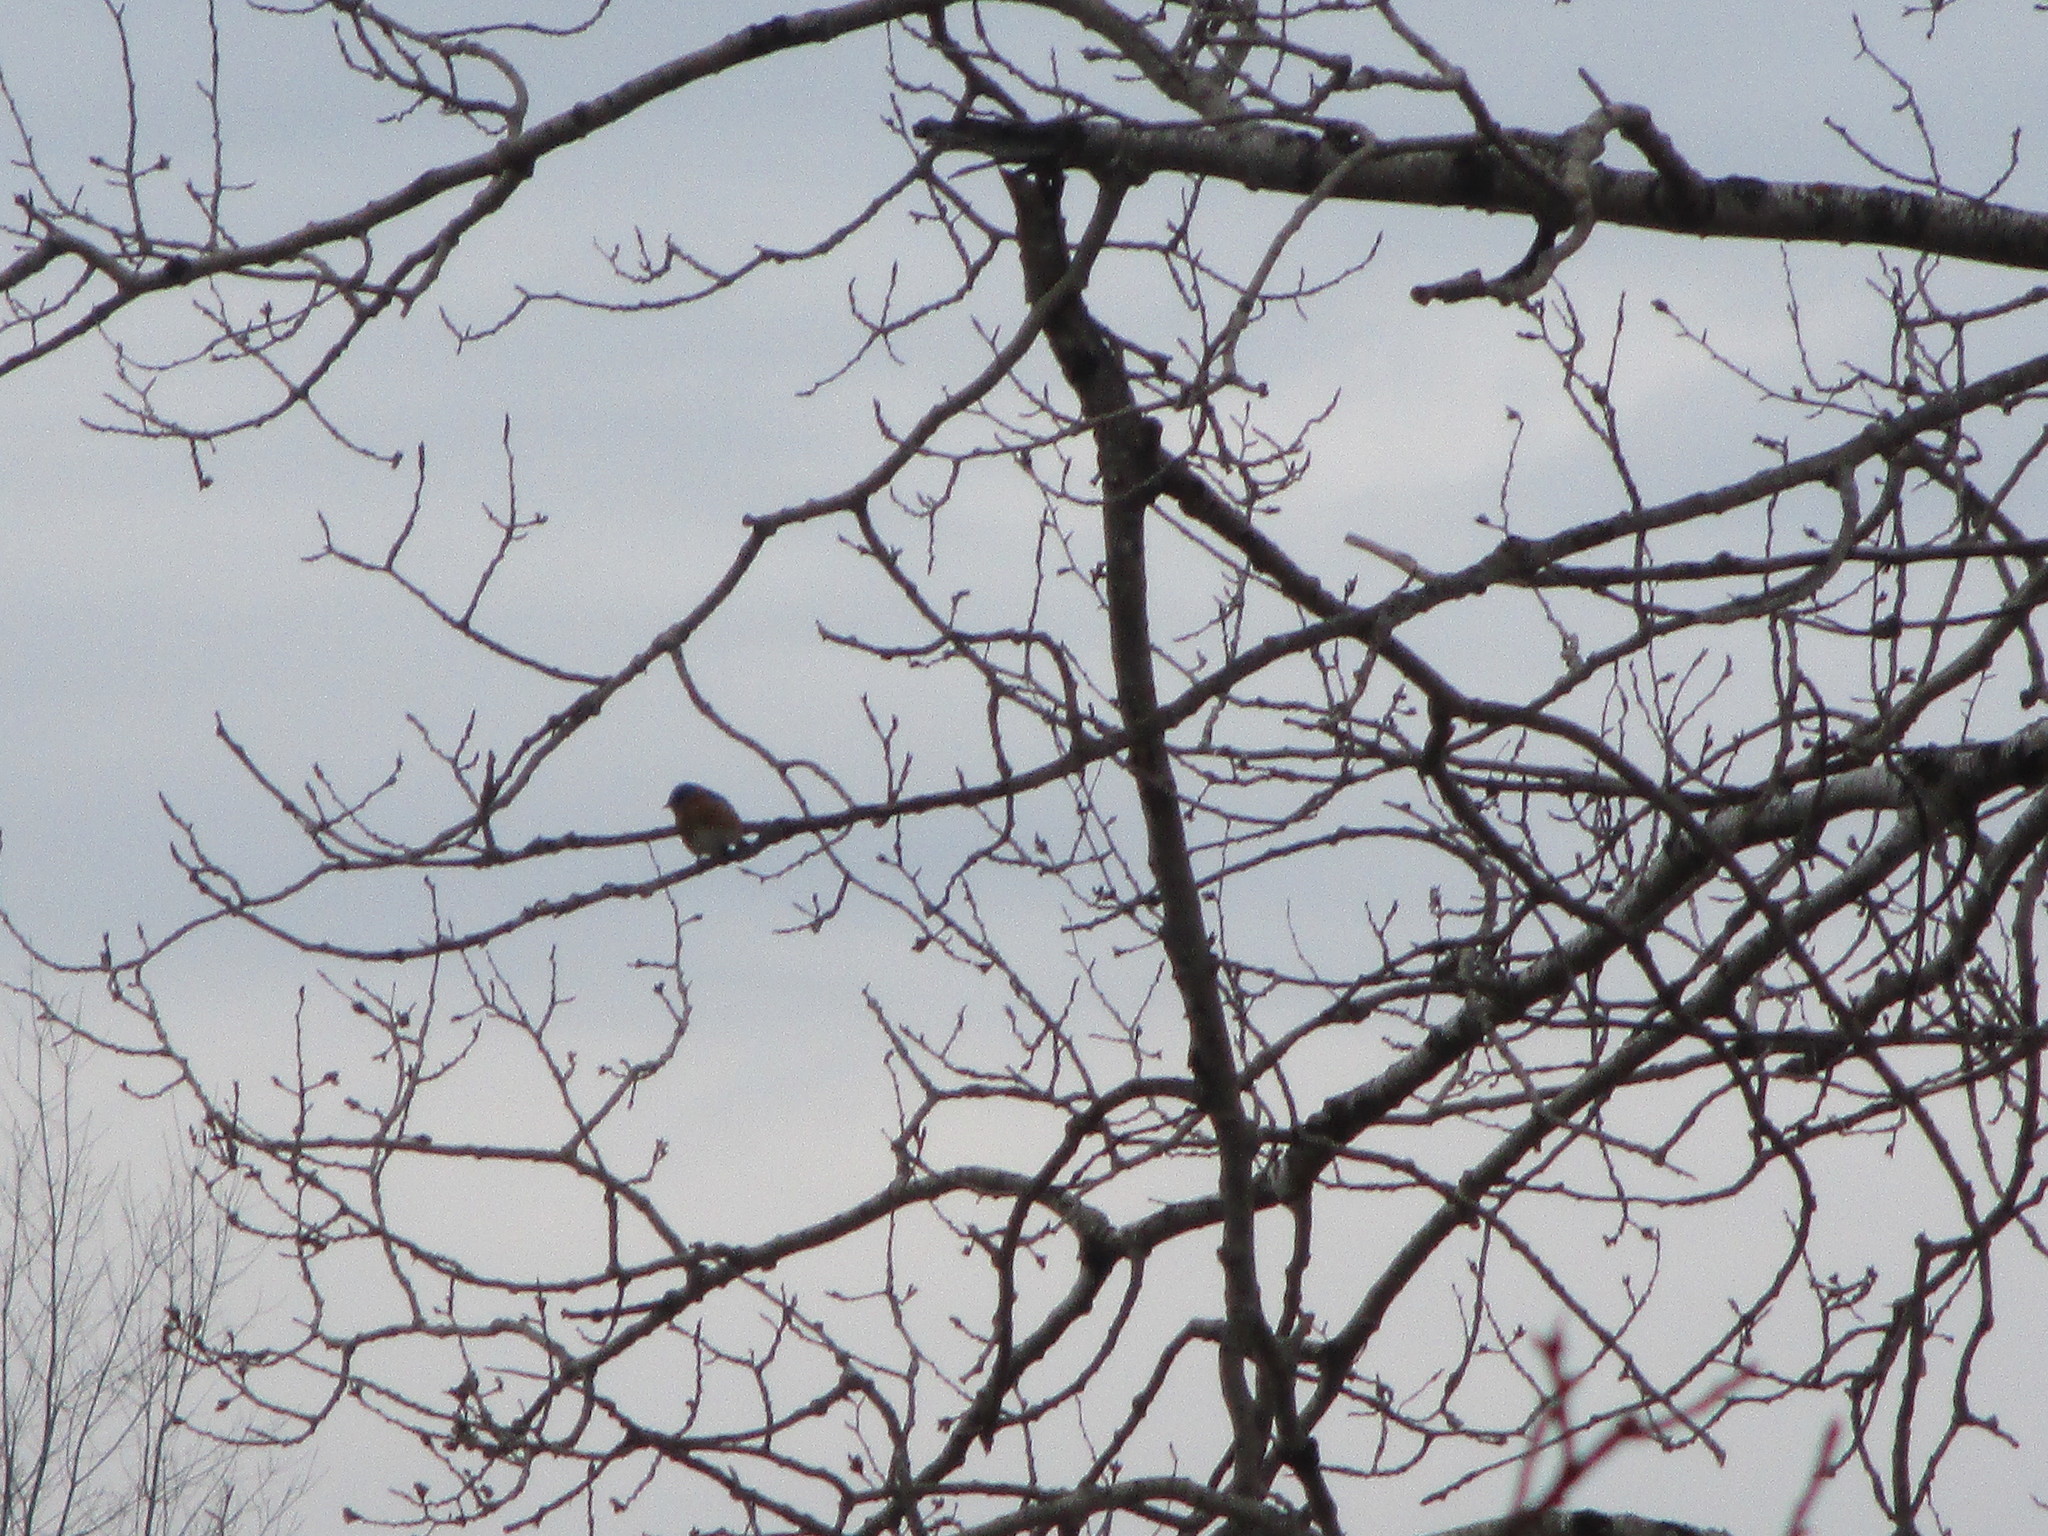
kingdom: Animalia
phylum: Chordata
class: Aves
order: Passeriformes
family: Turdidae
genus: Sialia
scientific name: Sialia sialis
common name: Eastern bluebird
